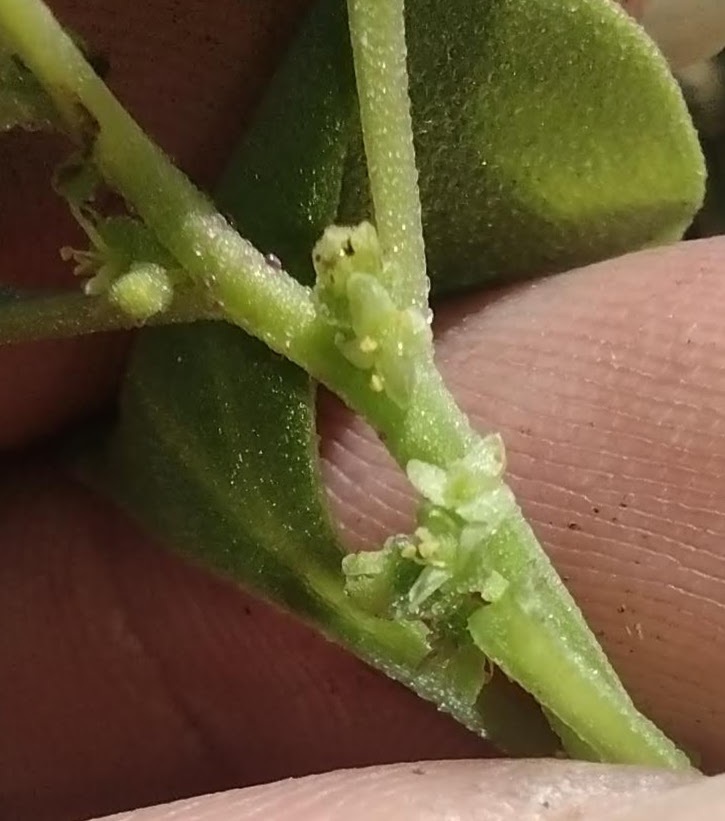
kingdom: Plantae
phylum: Tracheophyta
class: Magnoliopsida
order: Caryophyllales
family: Aizoaceae
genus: Tetragonia
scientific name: Tetragonia echinata
